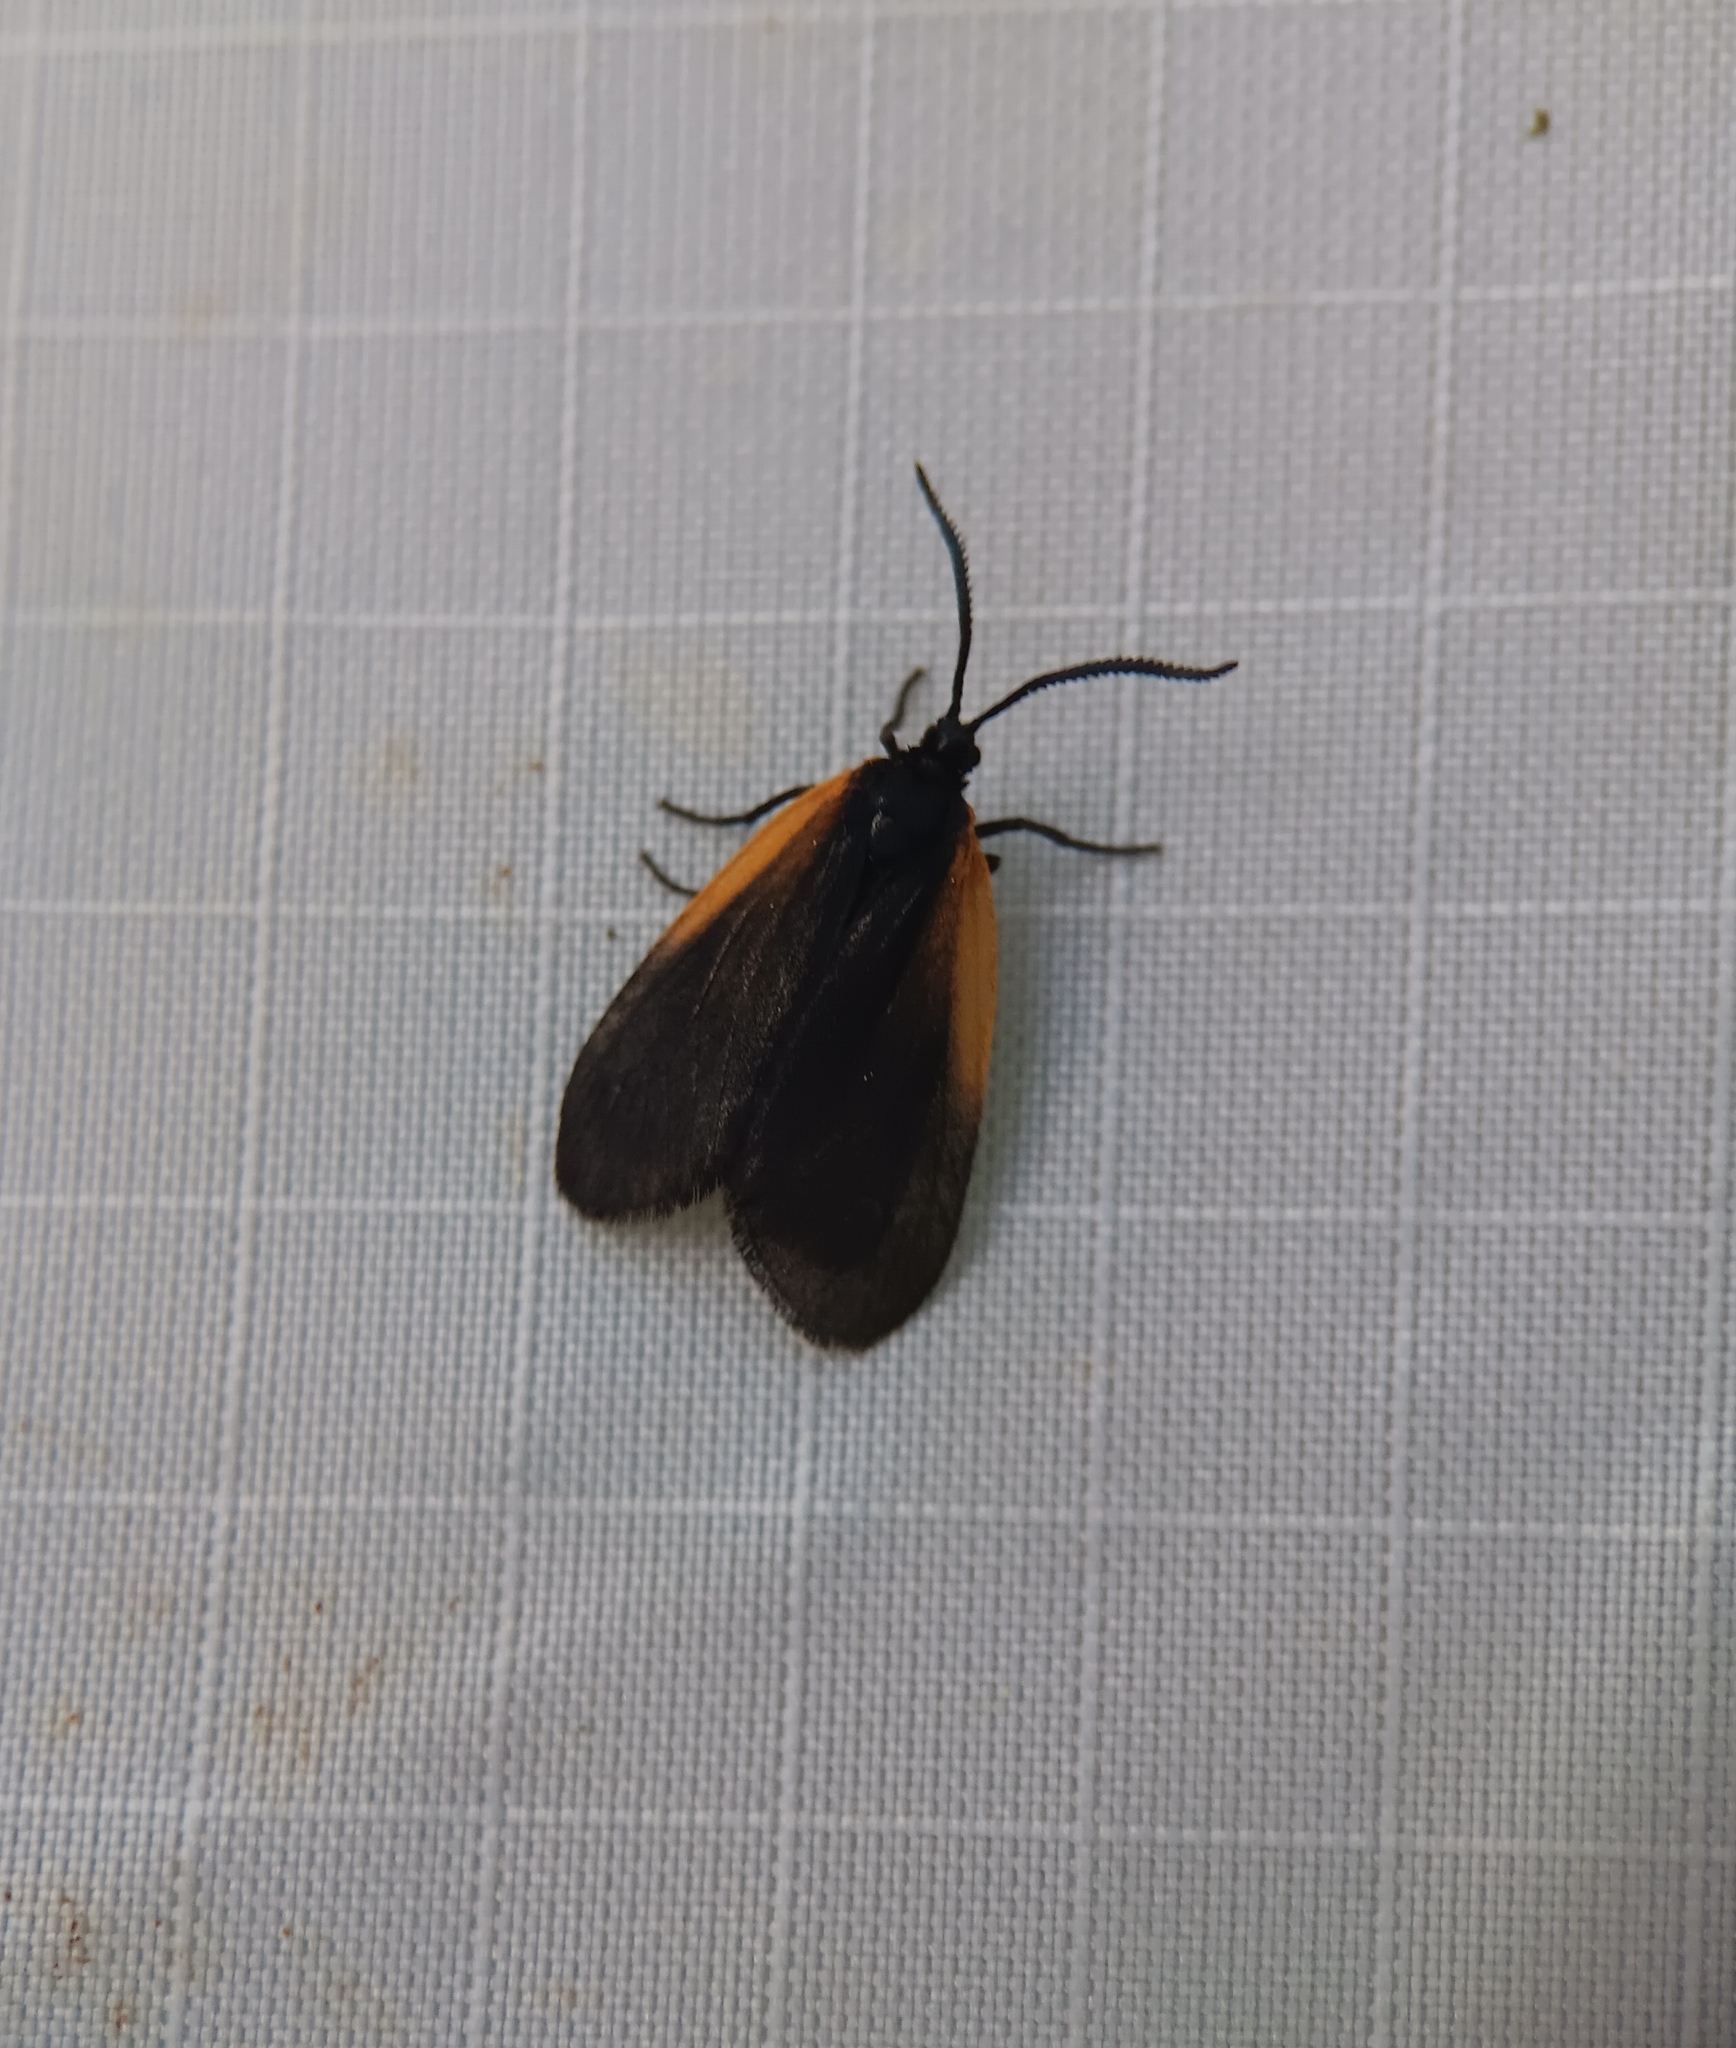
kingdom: Animalia
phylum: Arthropoda
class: Insecta
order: Lepidoptera
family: Zygaenidae
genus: Malthaca
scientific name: Malthaca dimidiata
